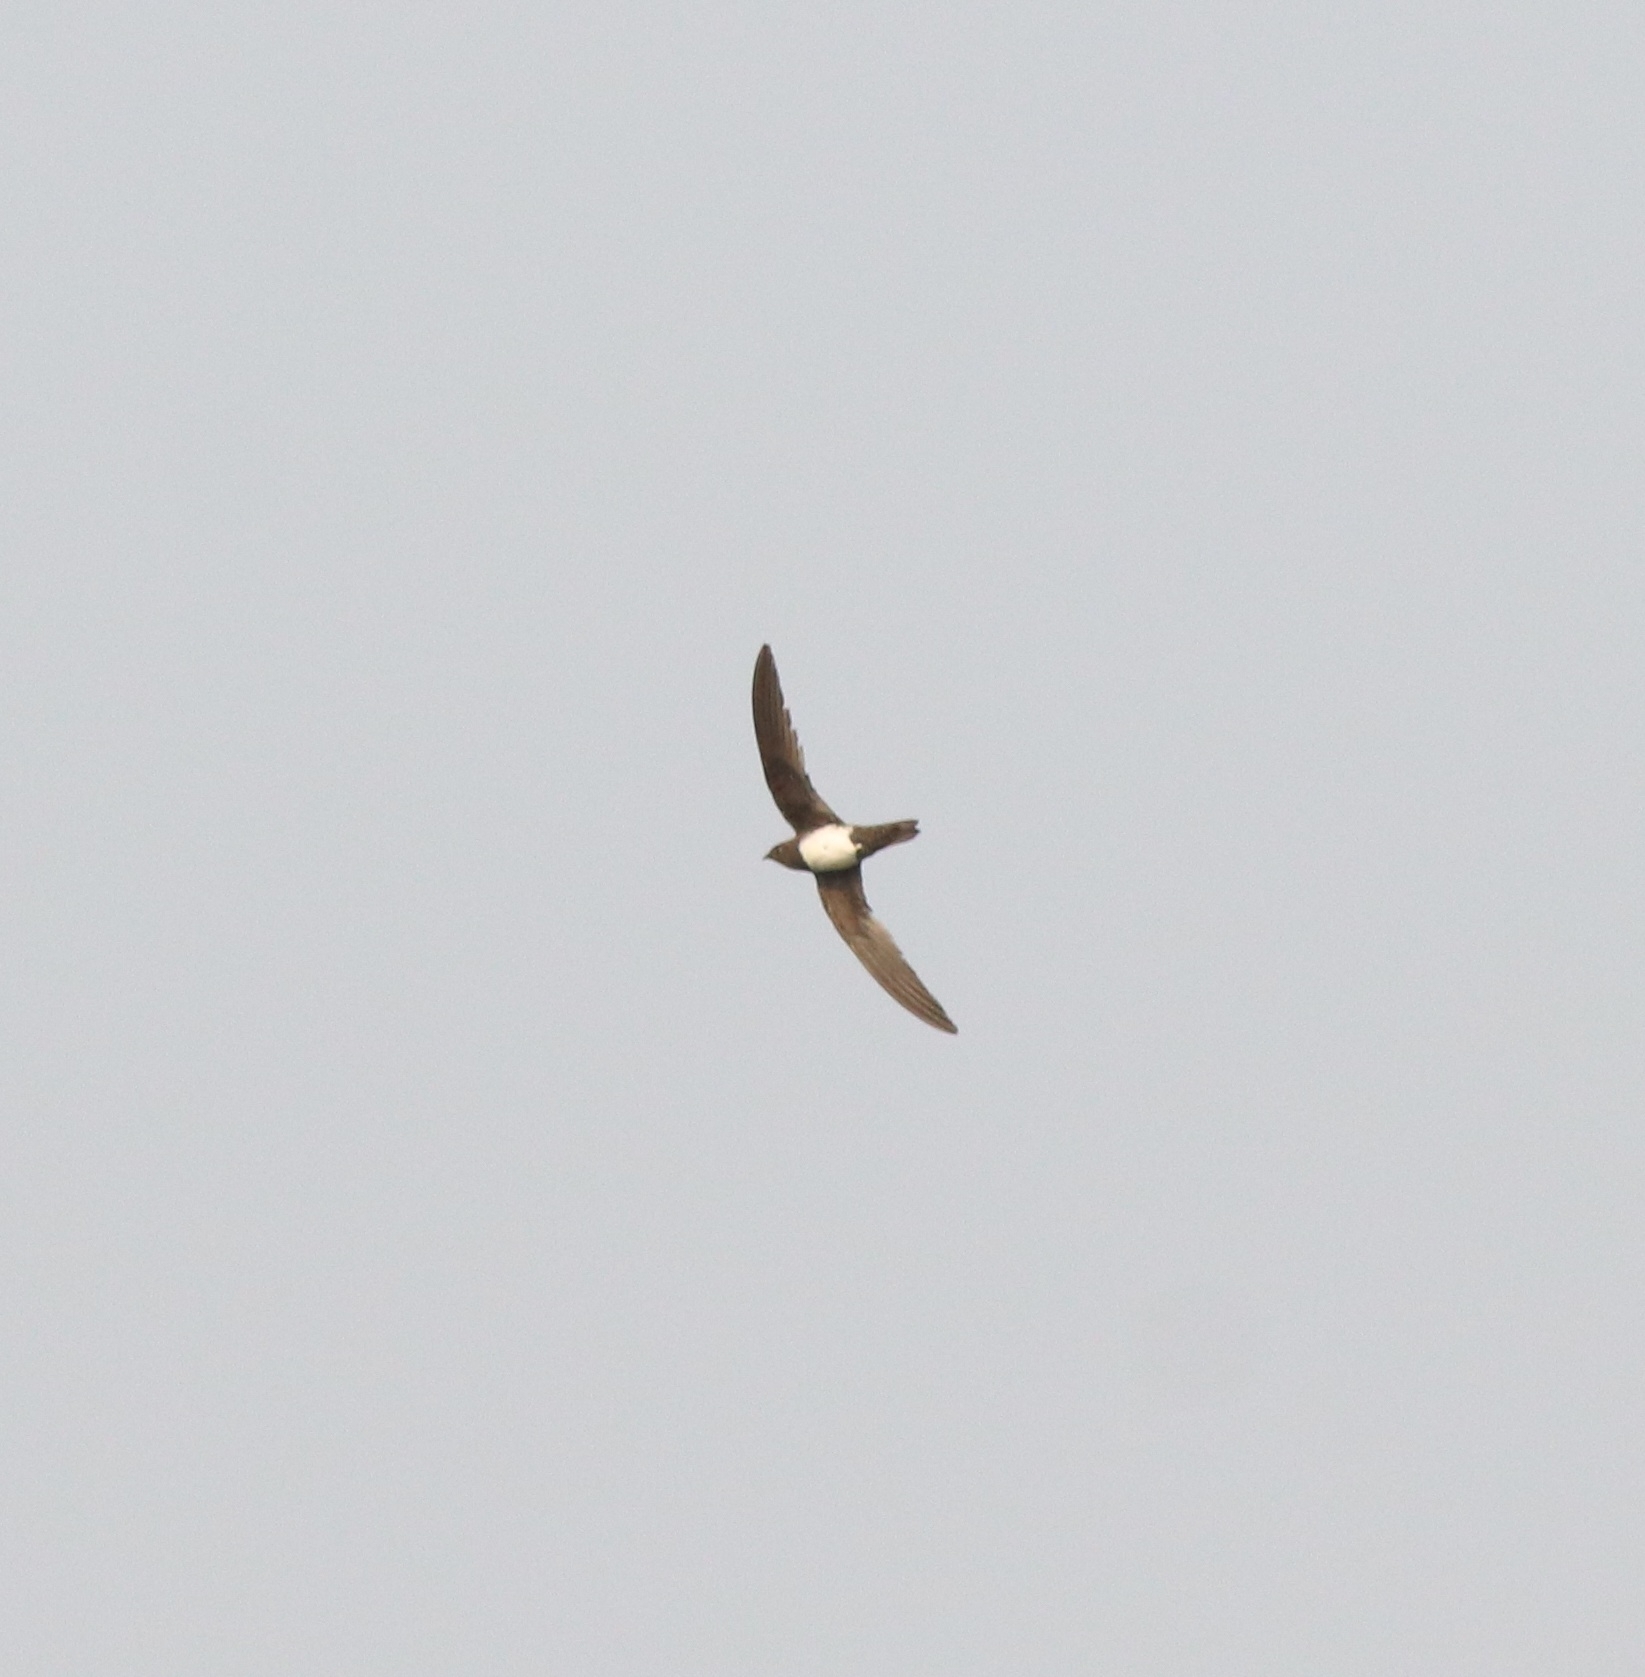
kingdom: Animalia
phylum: Chordata
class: Aves
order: Apodiformes
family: Apodidae
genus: Tachymarptis
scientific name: Tachymarptis melba
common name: Alpine swift
